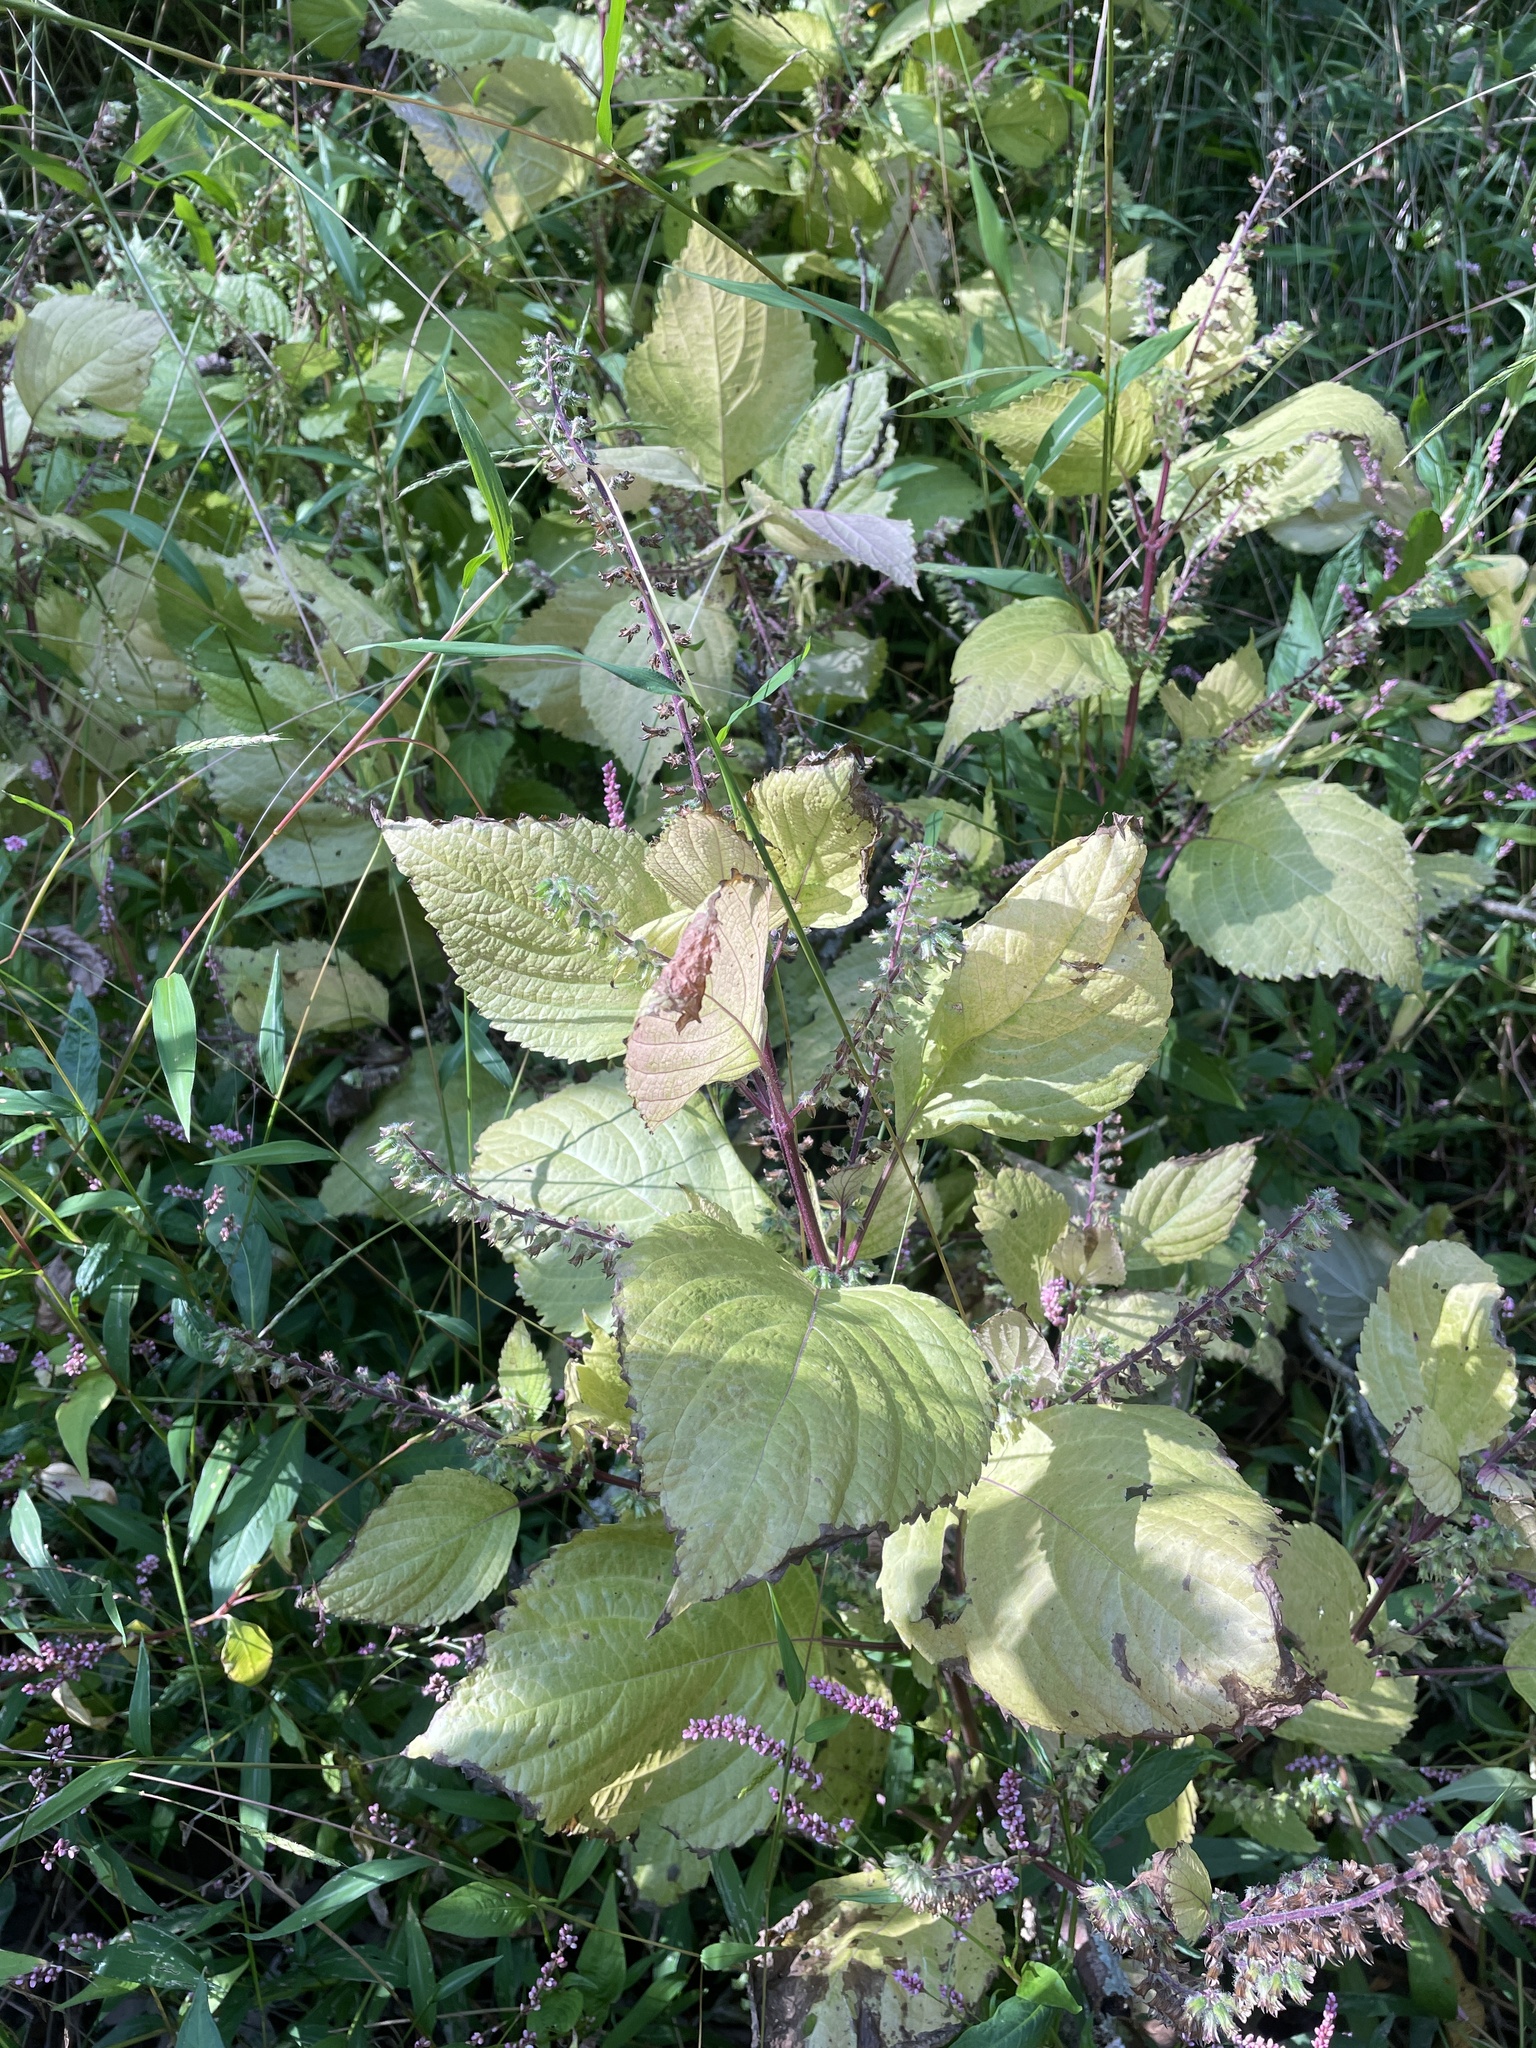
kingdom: Plantae
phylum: Tracheophyta
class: Magnoliopsida
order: Lamiales
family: Lamiaceae
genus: Perilla
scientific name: Perilla frutescens
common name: Perilla
